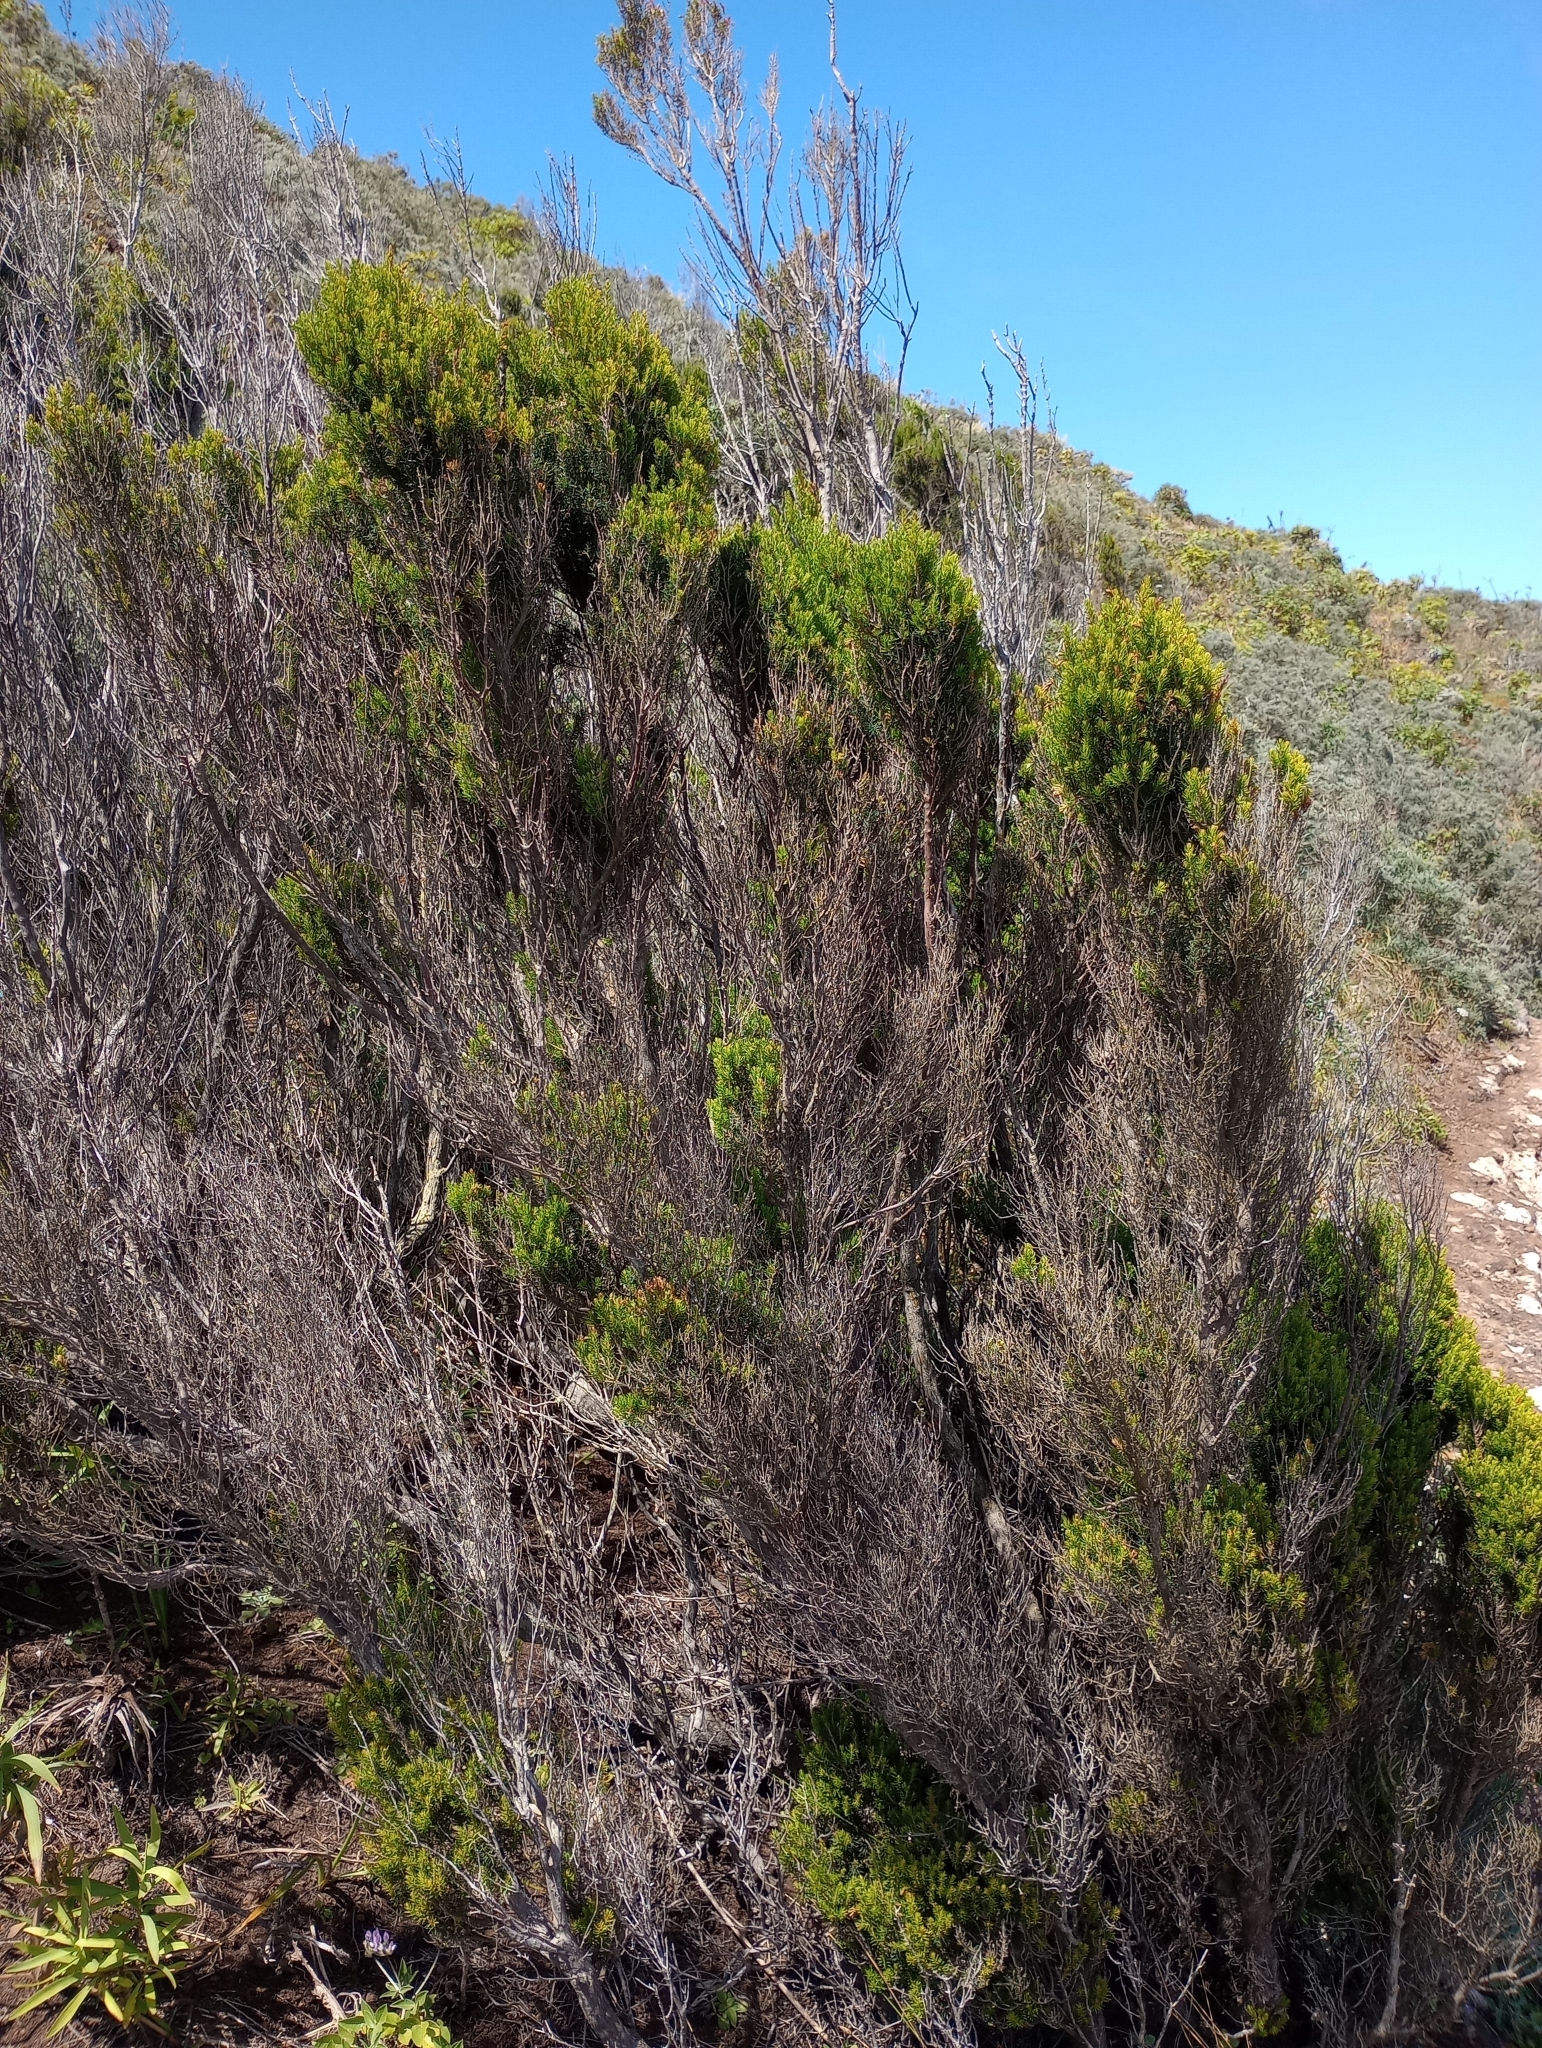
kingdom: Plantae
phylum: Tracheophyta
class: Magnoliopsida
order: Ericales
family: Ericaceae
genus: Erica
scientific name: Erica canariensis
